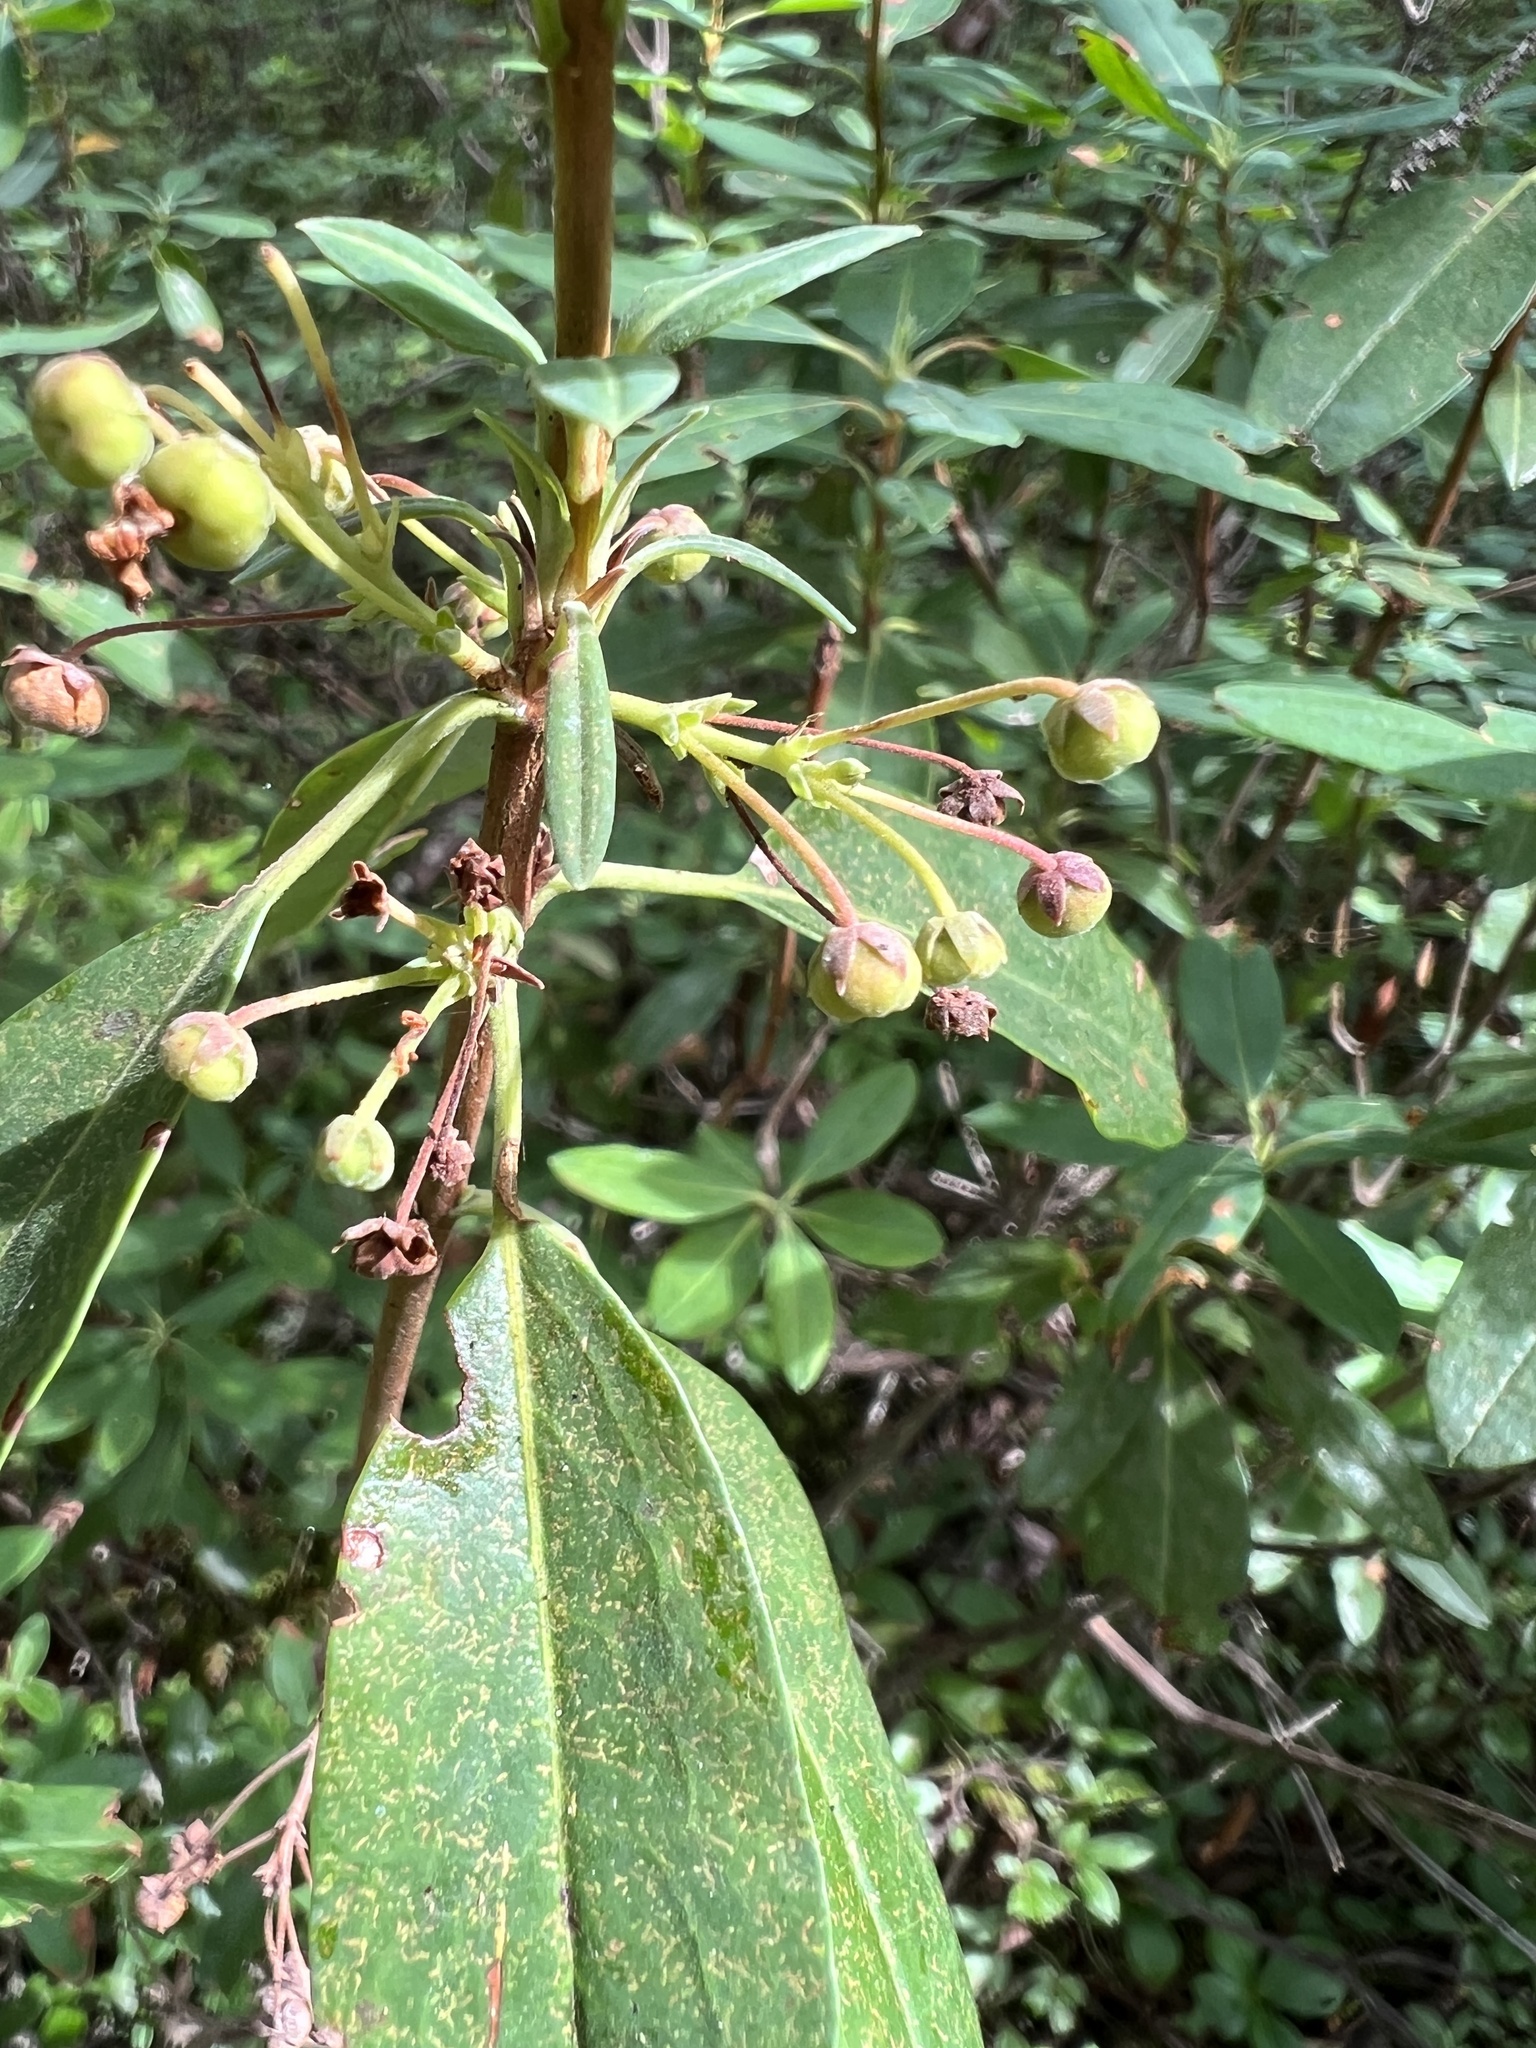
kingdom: Plantae
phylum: Tracheophyta
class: Magnoliopsida
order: Ericales
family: Ericaceae
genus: Kalmia
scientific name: Kalmia angustifolia
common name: Sheep-laurel
